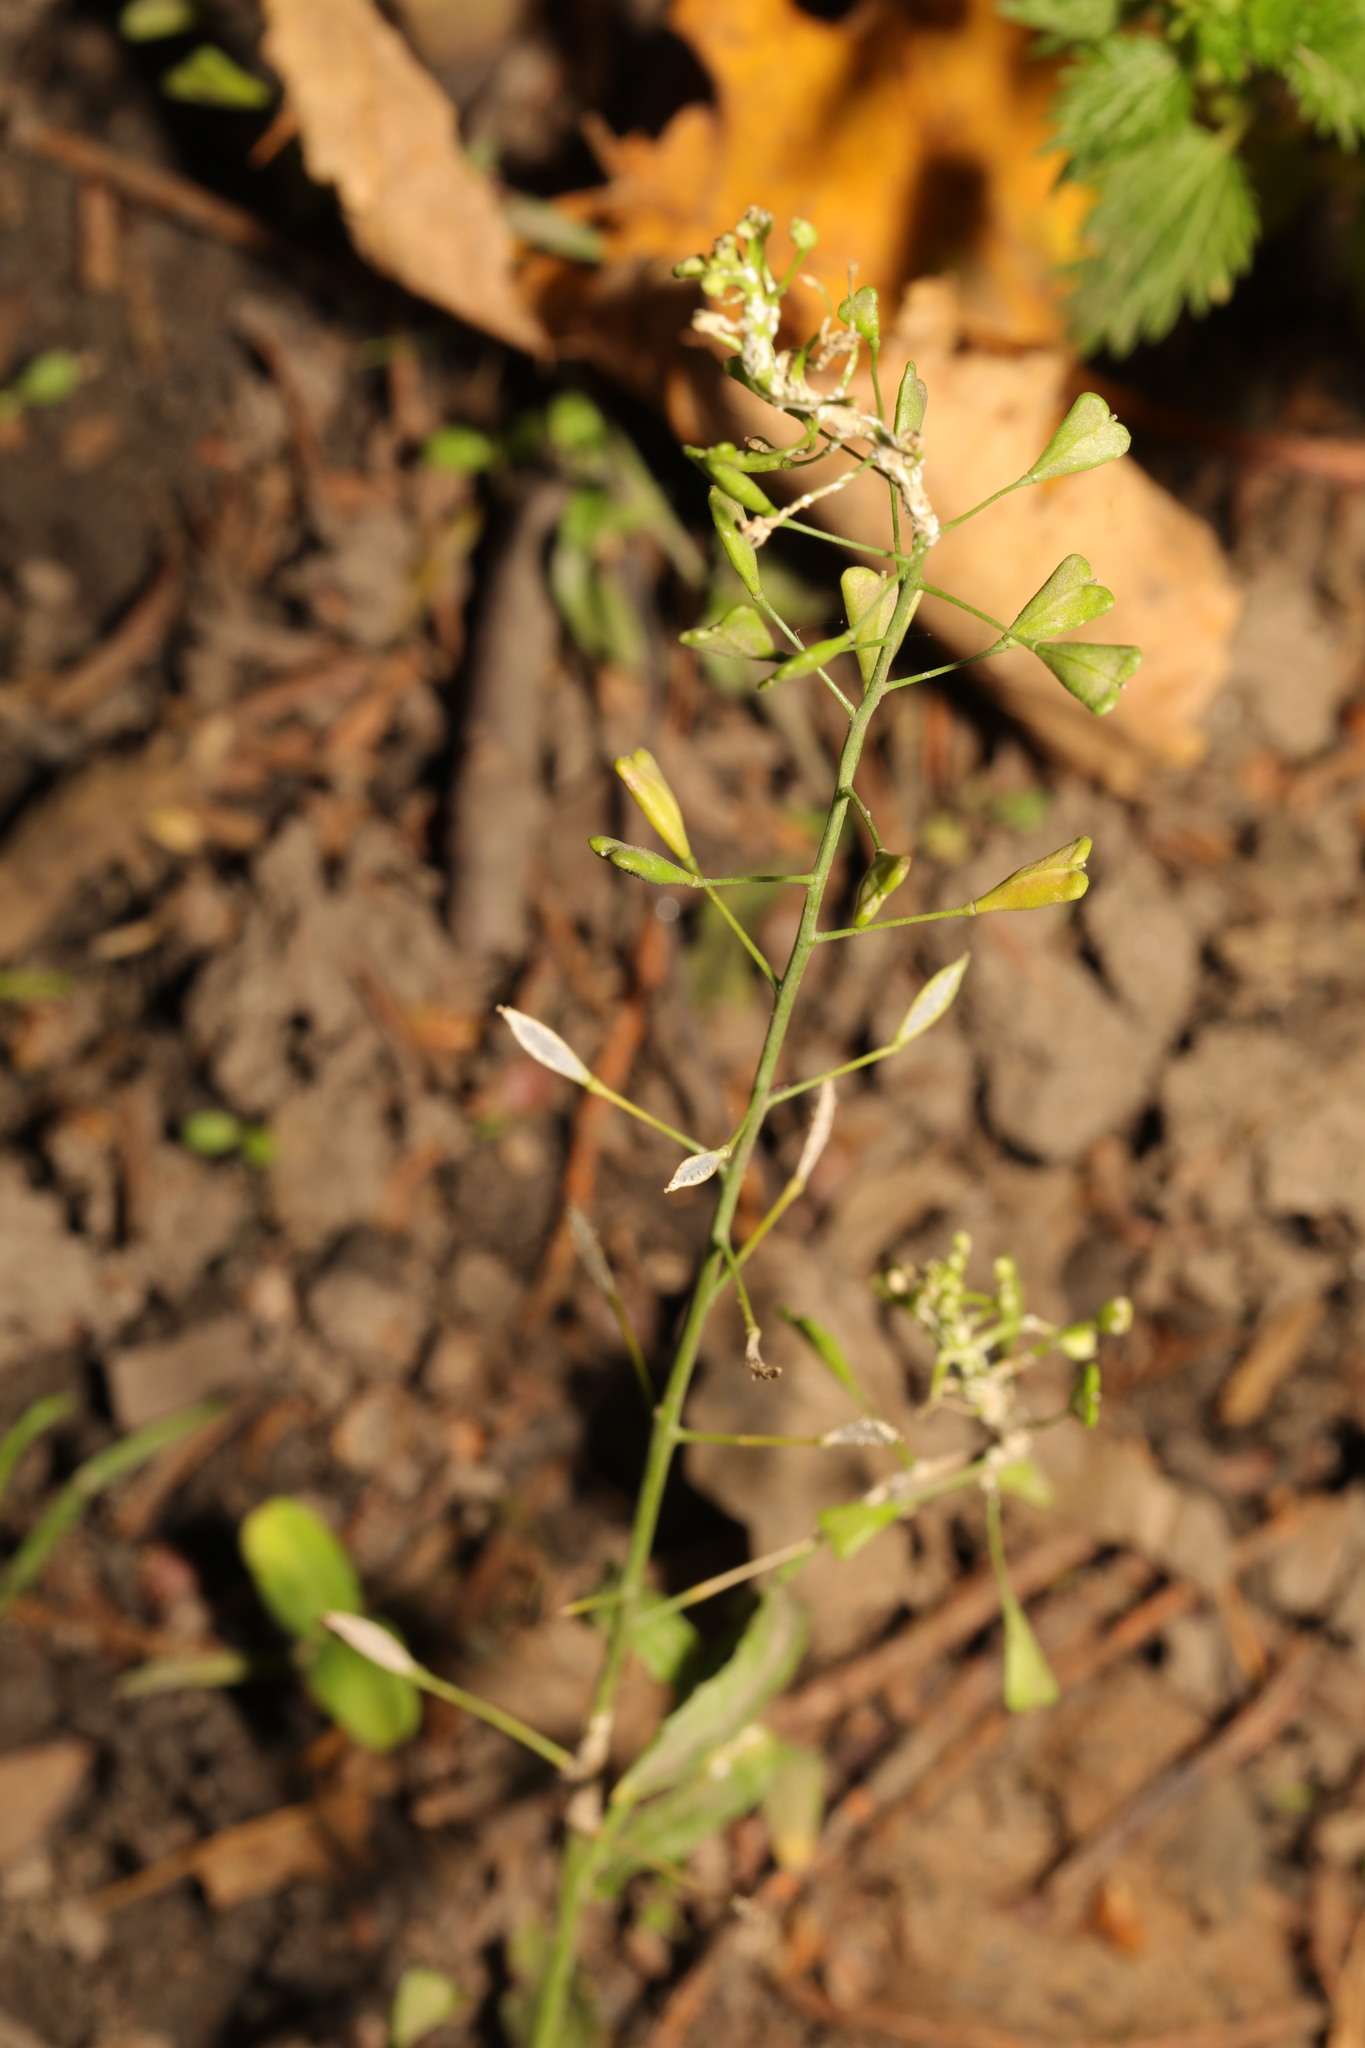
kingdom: Plantae
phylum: Tracheophyta
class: Magnoliopsida
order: Brassicales
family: Brassicaceae
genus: Capsella
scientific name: Capsella bursa-pastoris
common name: Shepherd's purse
